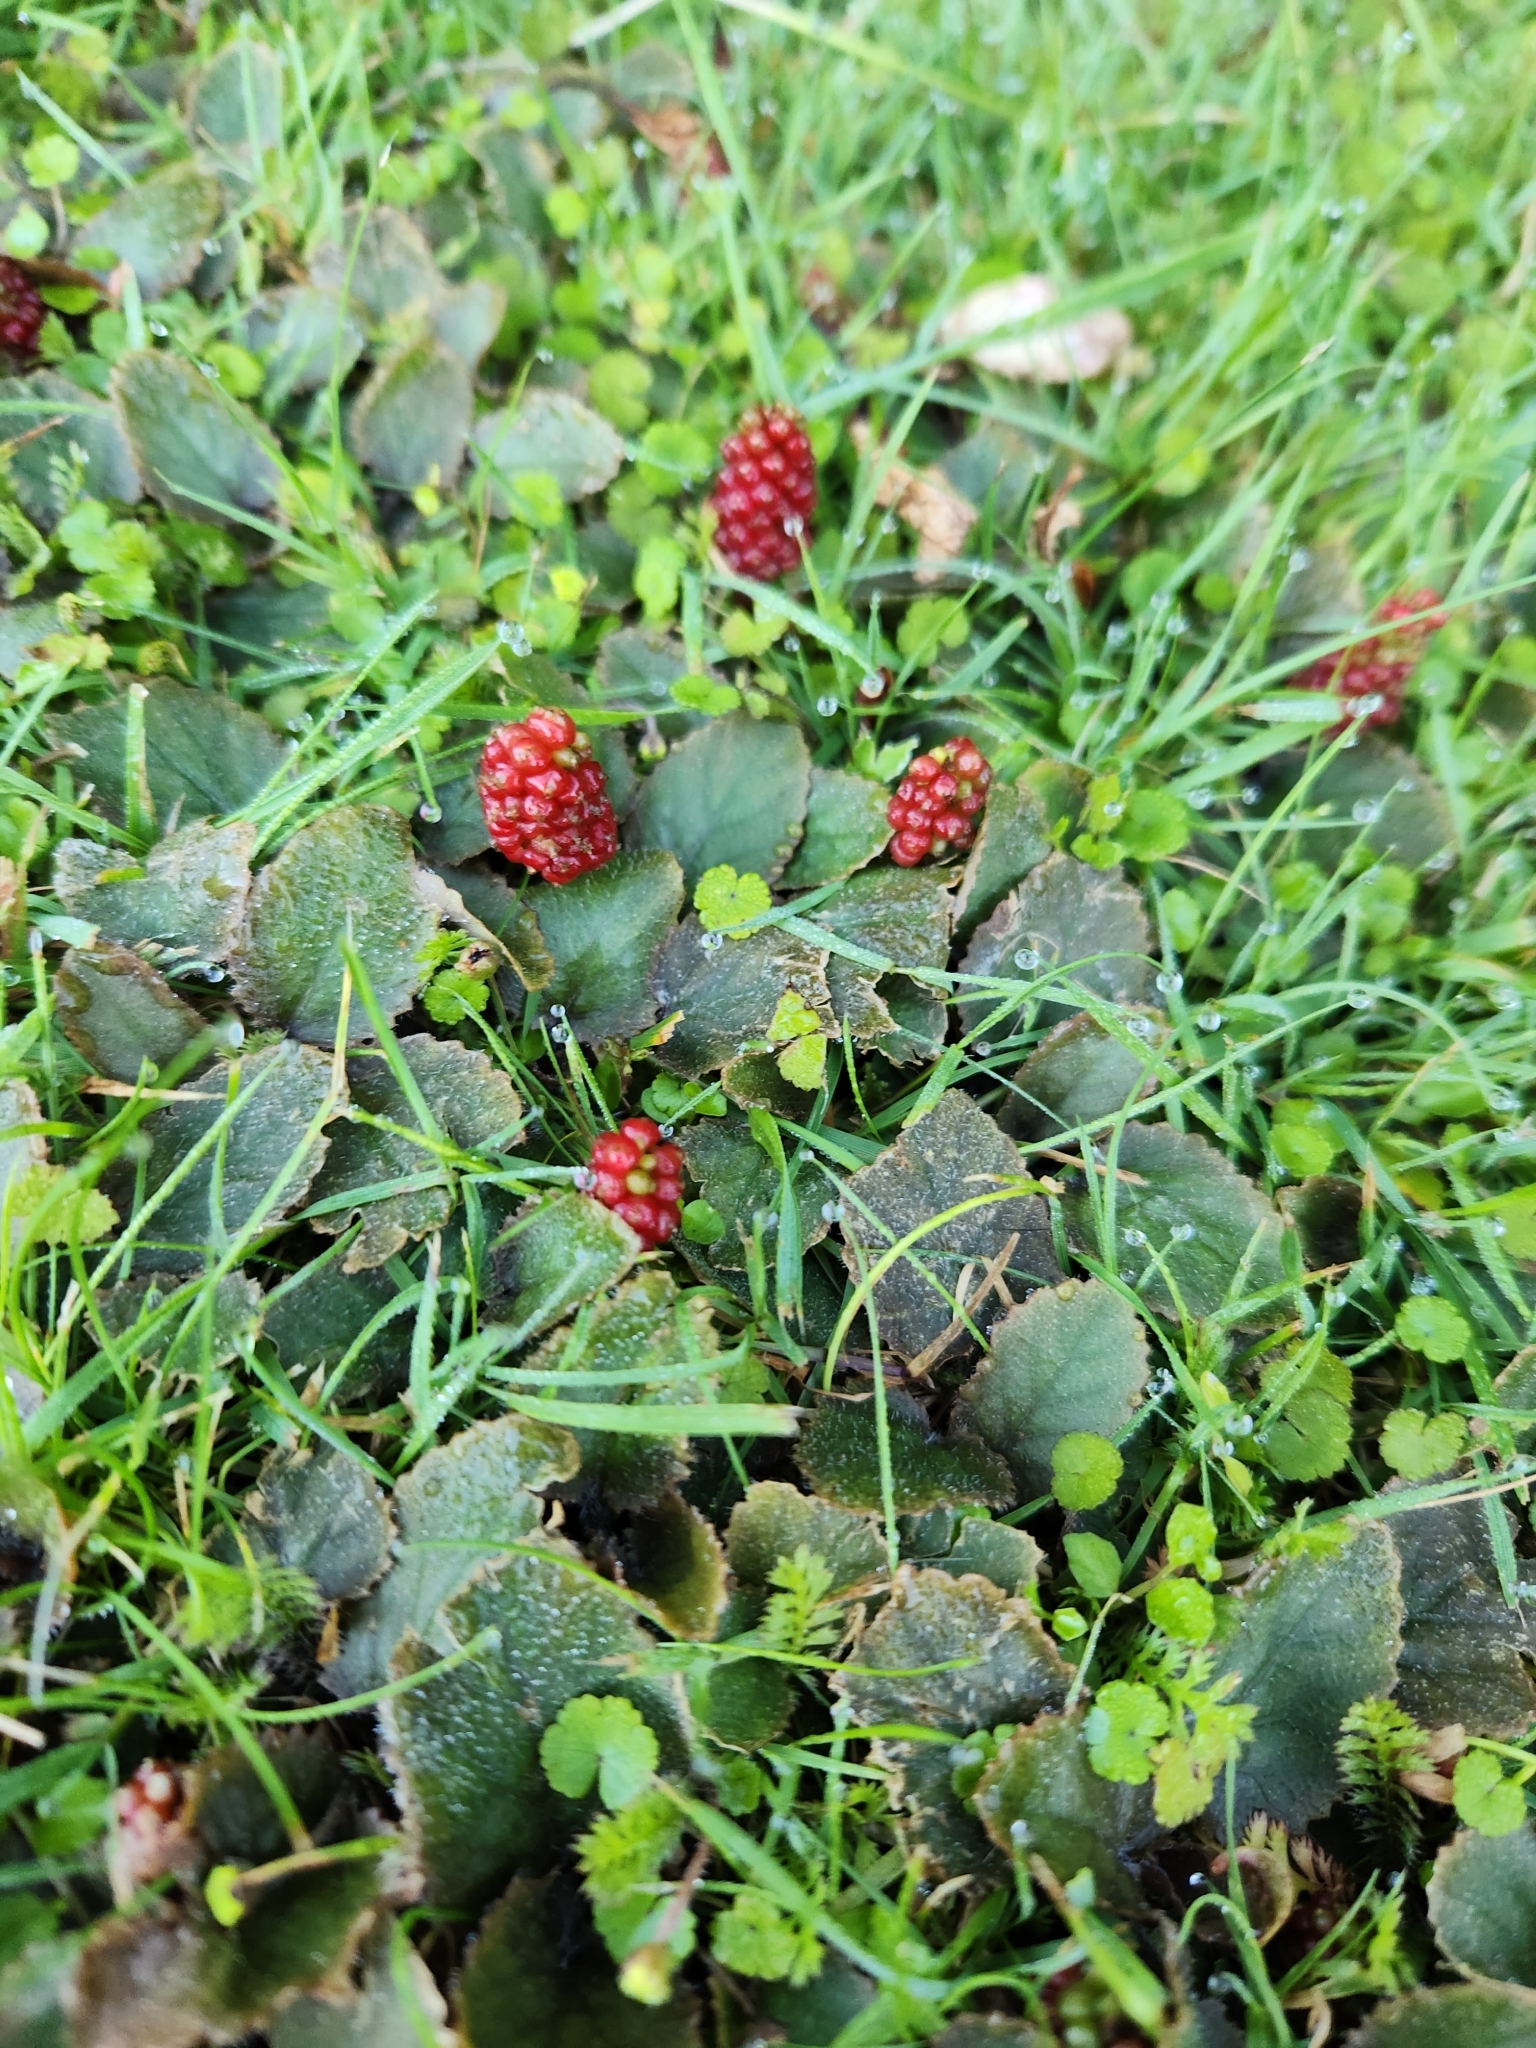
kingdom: Plantae
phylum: Tracheophyta
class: Magnoliopsida
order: Gunnerales
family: Gunneraceae
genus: Gunnera
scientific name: Gunnera prorepens
